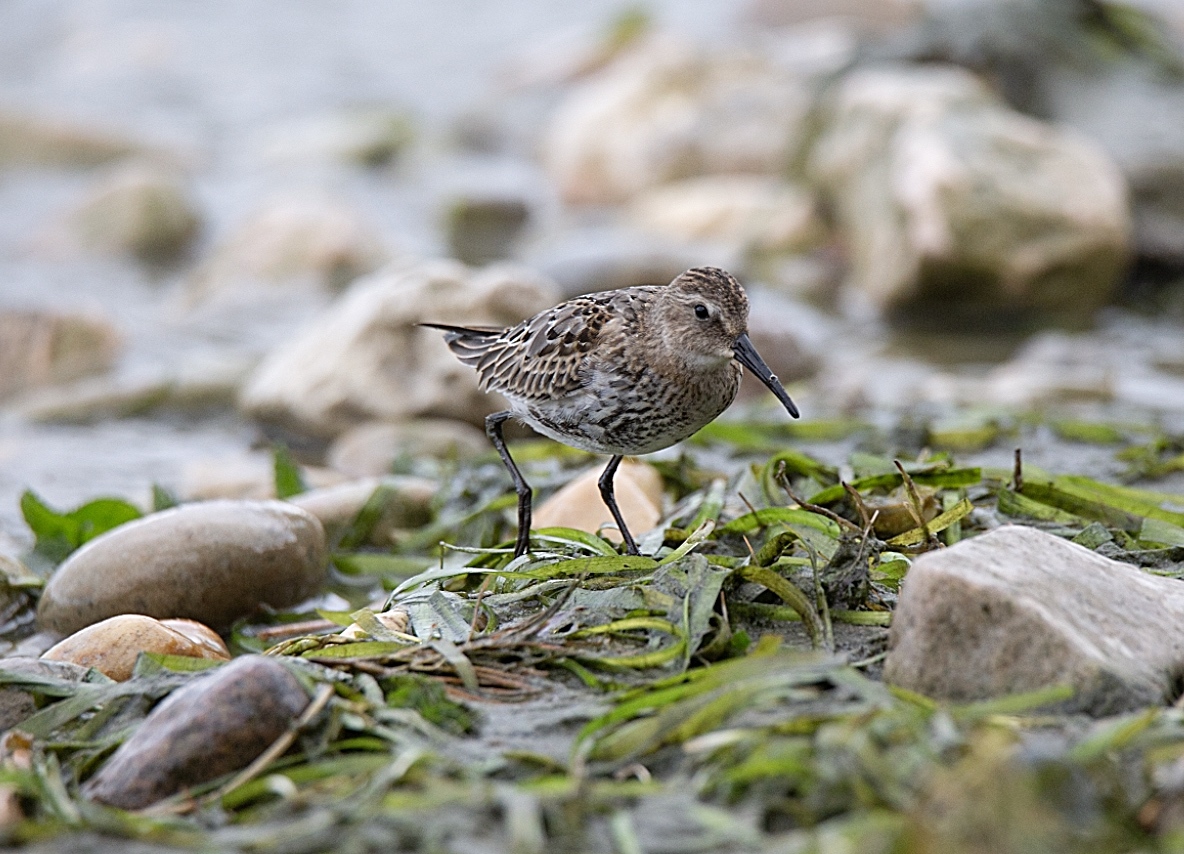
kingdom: Animalia
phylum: Chordata
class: Aves
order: Charadriiformes
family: Scolopacidae
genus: Calidris
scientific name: Calidris alpina
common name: Dunlin
